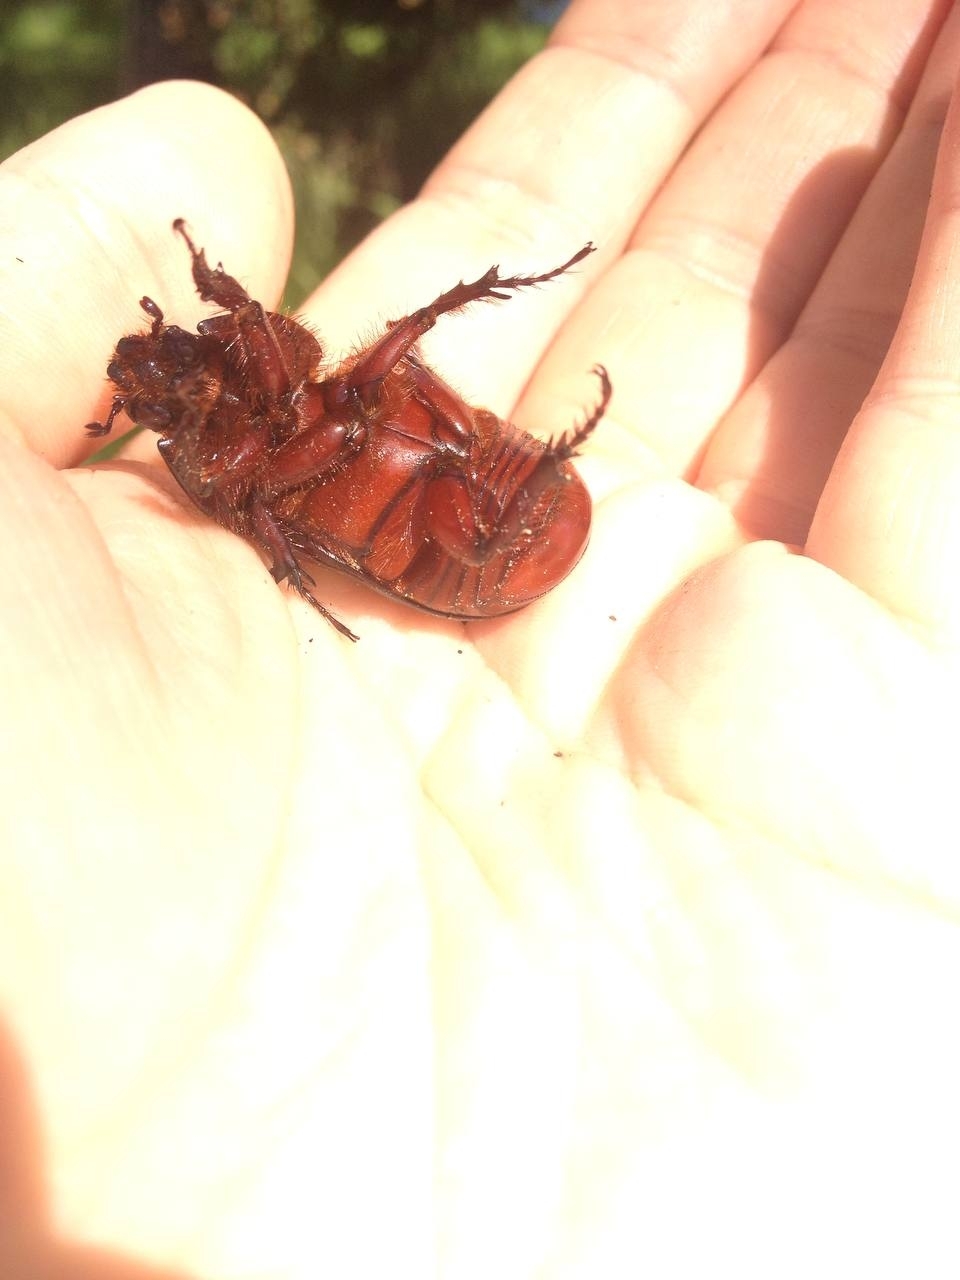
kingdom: Animalia
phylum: Arthropoda
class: Insecta
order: Coleoptera
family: Scarabaeidae
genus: Oryctes
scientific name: Oryctes nasicornis
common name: European rhinoceros beetle
